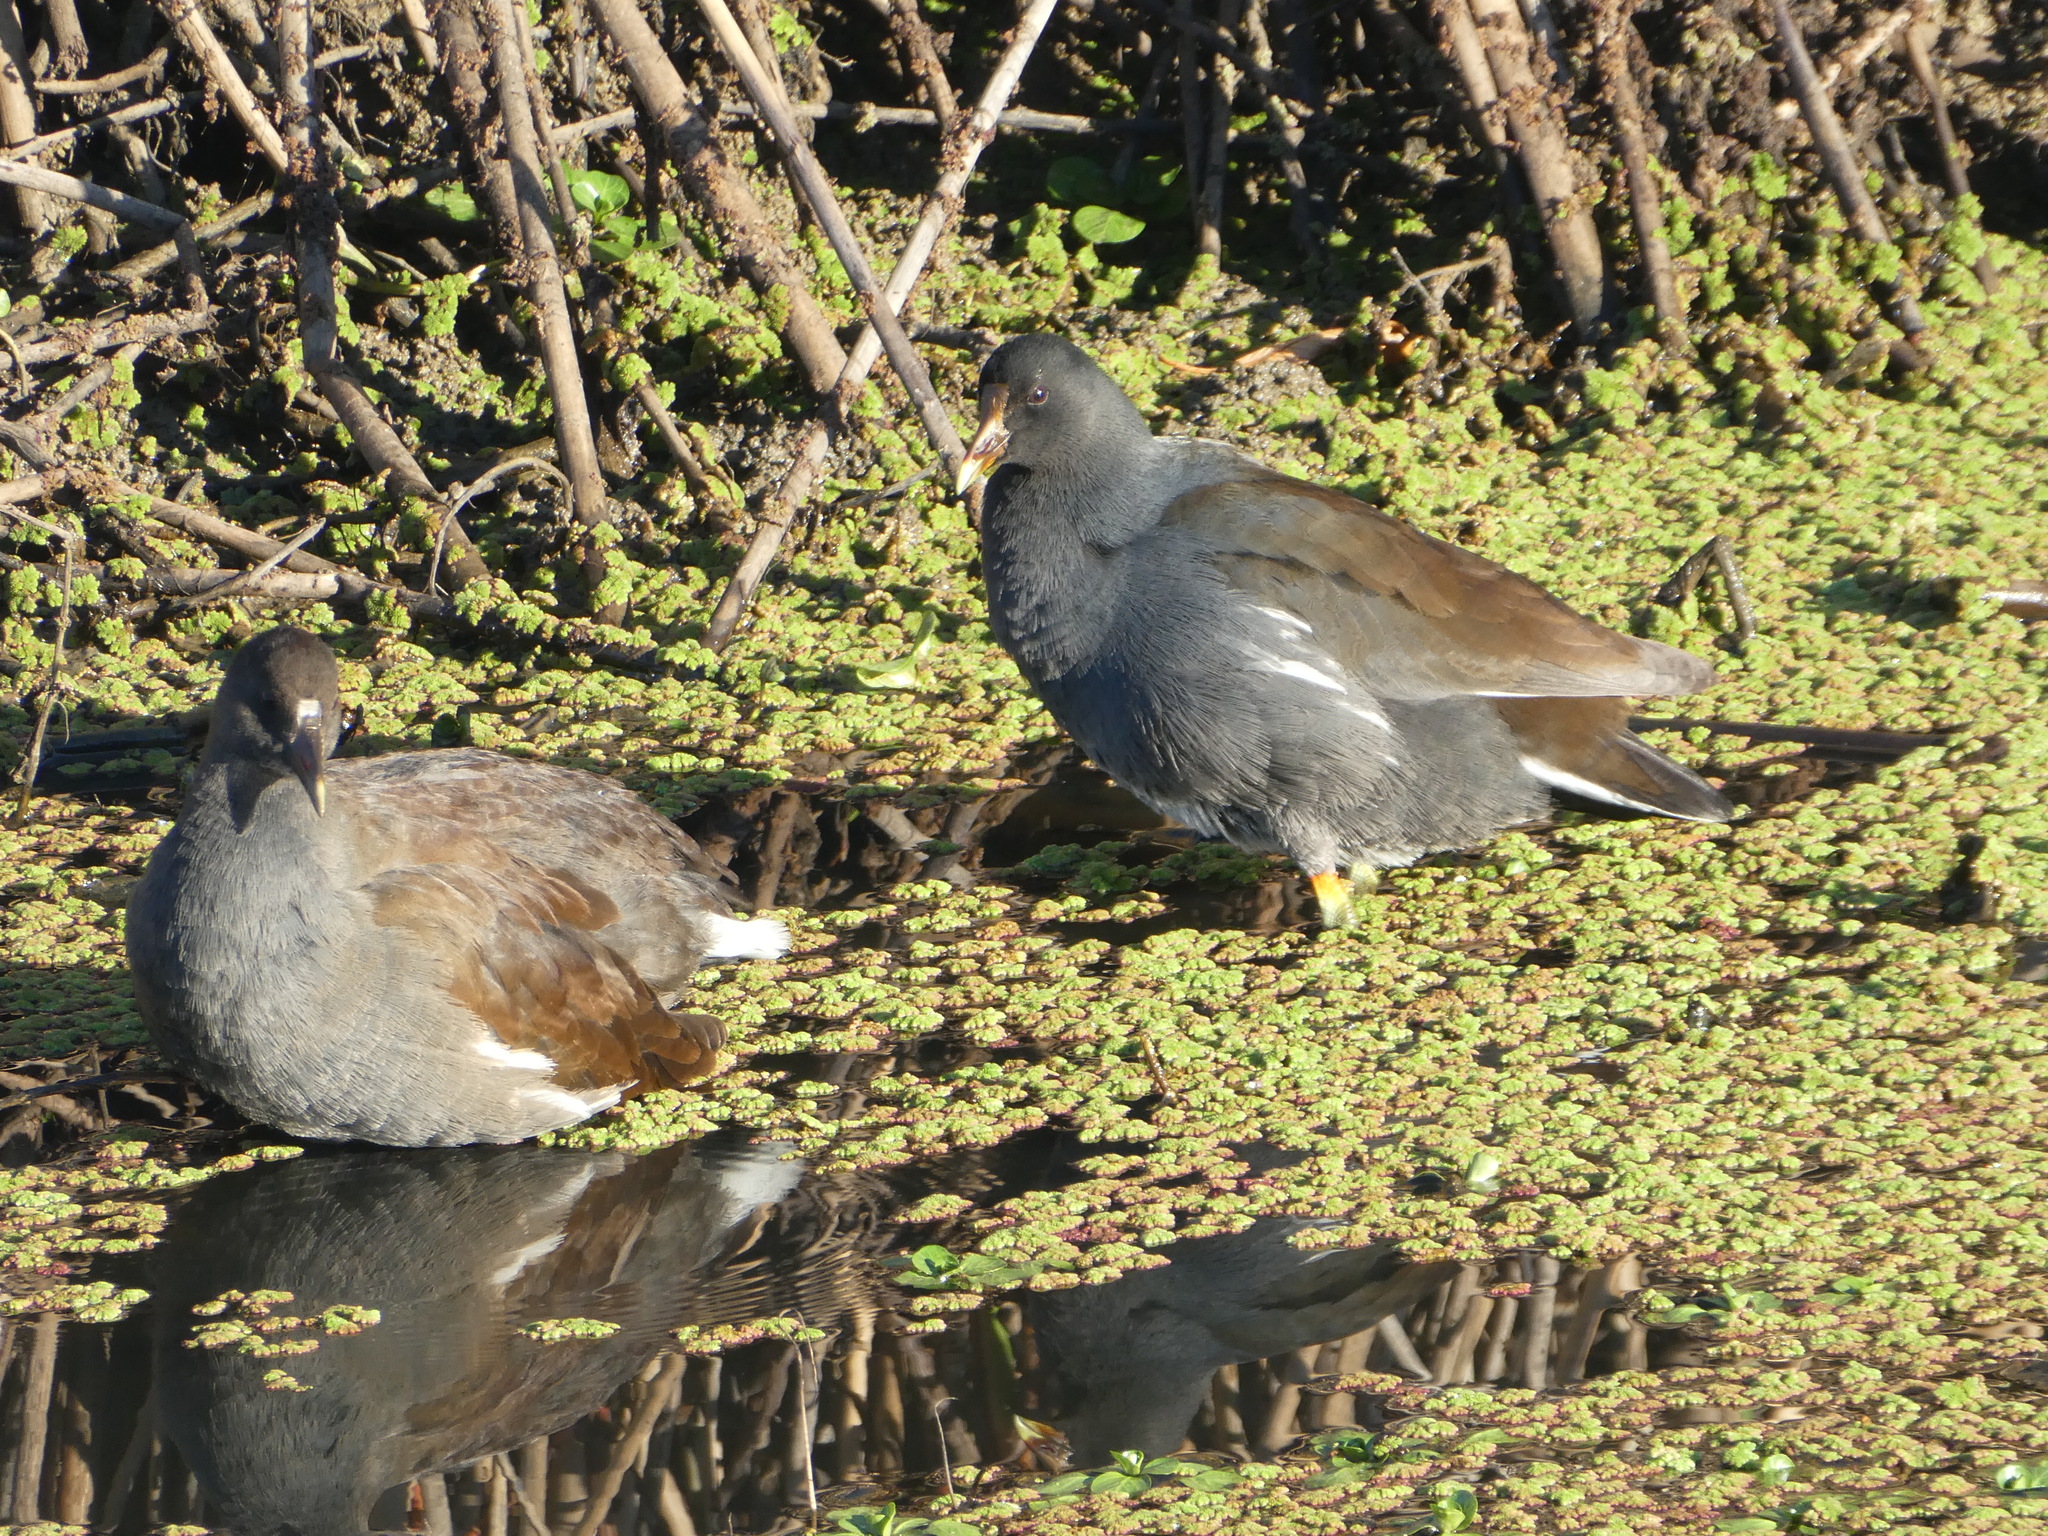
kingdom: Animalia
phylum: Chordata
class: Aves
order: Gruiformes
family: Rallidae
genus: Gallinula
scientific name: Gallinula chloropus
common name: Common moorhen
